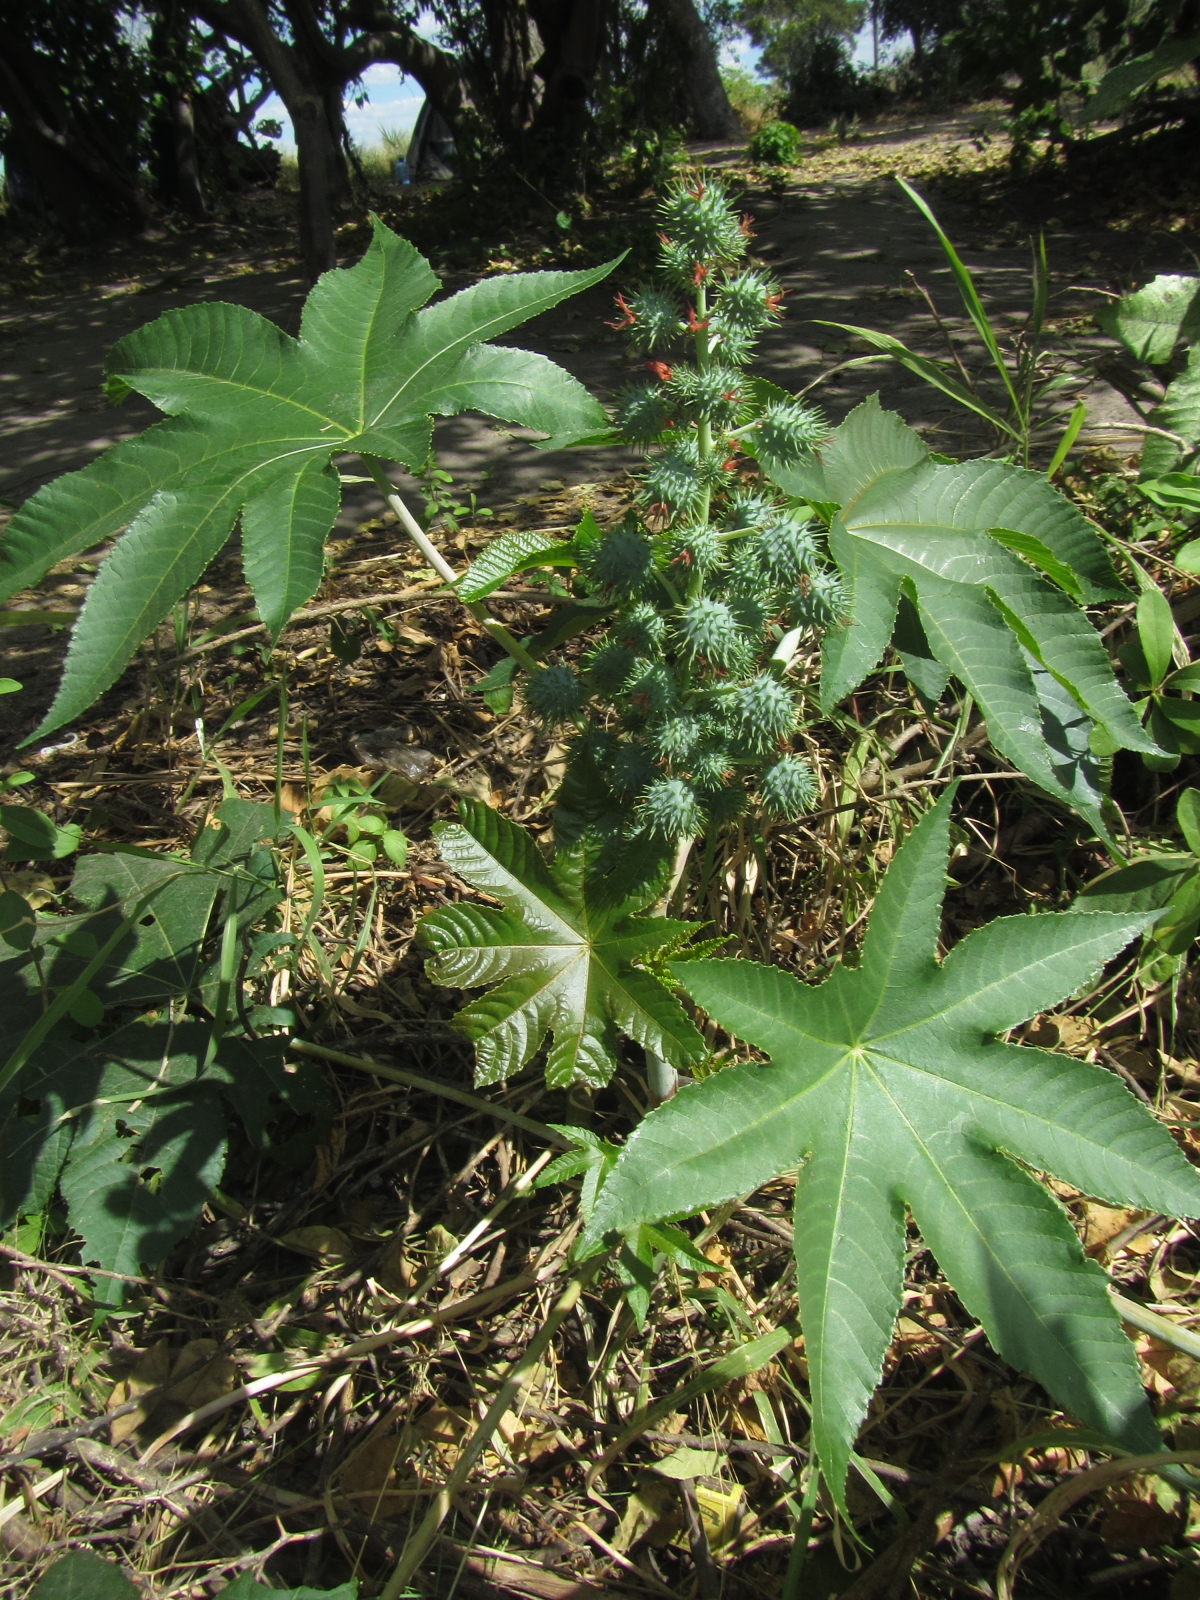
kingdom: Plantae
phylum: Tracheophyta
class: Magnoliopsida
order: Malpighiales
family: Euphorbiaceae
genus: Ricinus
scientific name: Ricinus communis
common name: Castor-oil-plant
